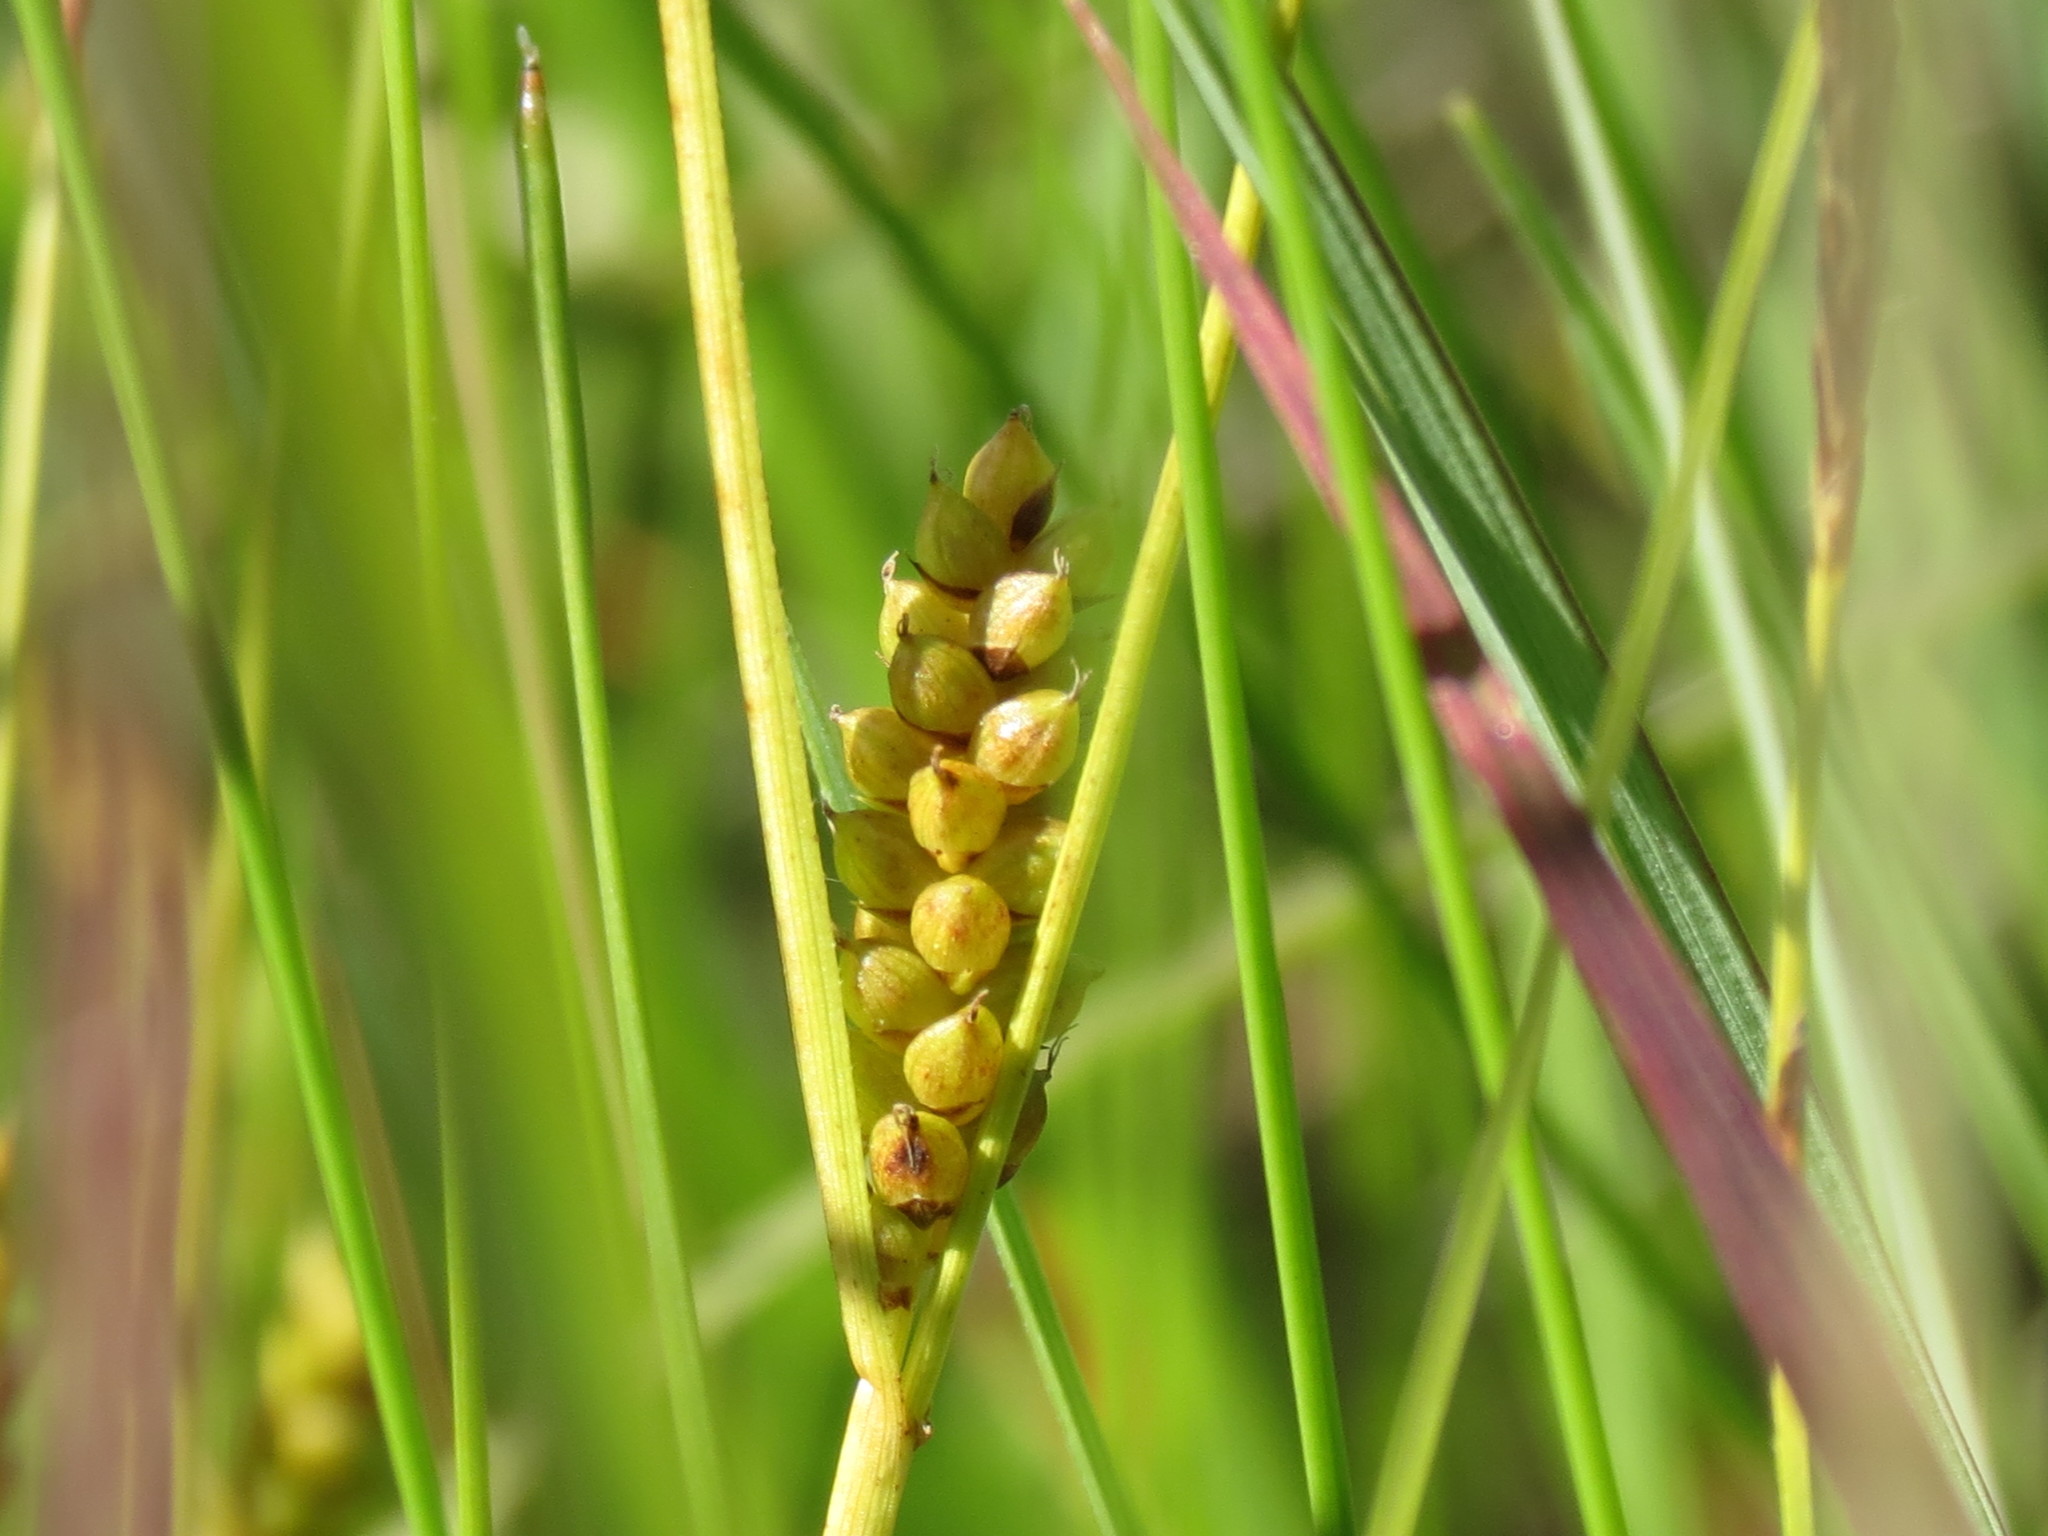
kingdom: Plantae
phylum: Tracheophyta
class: Liliopsida
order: Poales
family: Cyperaceae
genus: Carex
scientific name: Carex crawei
